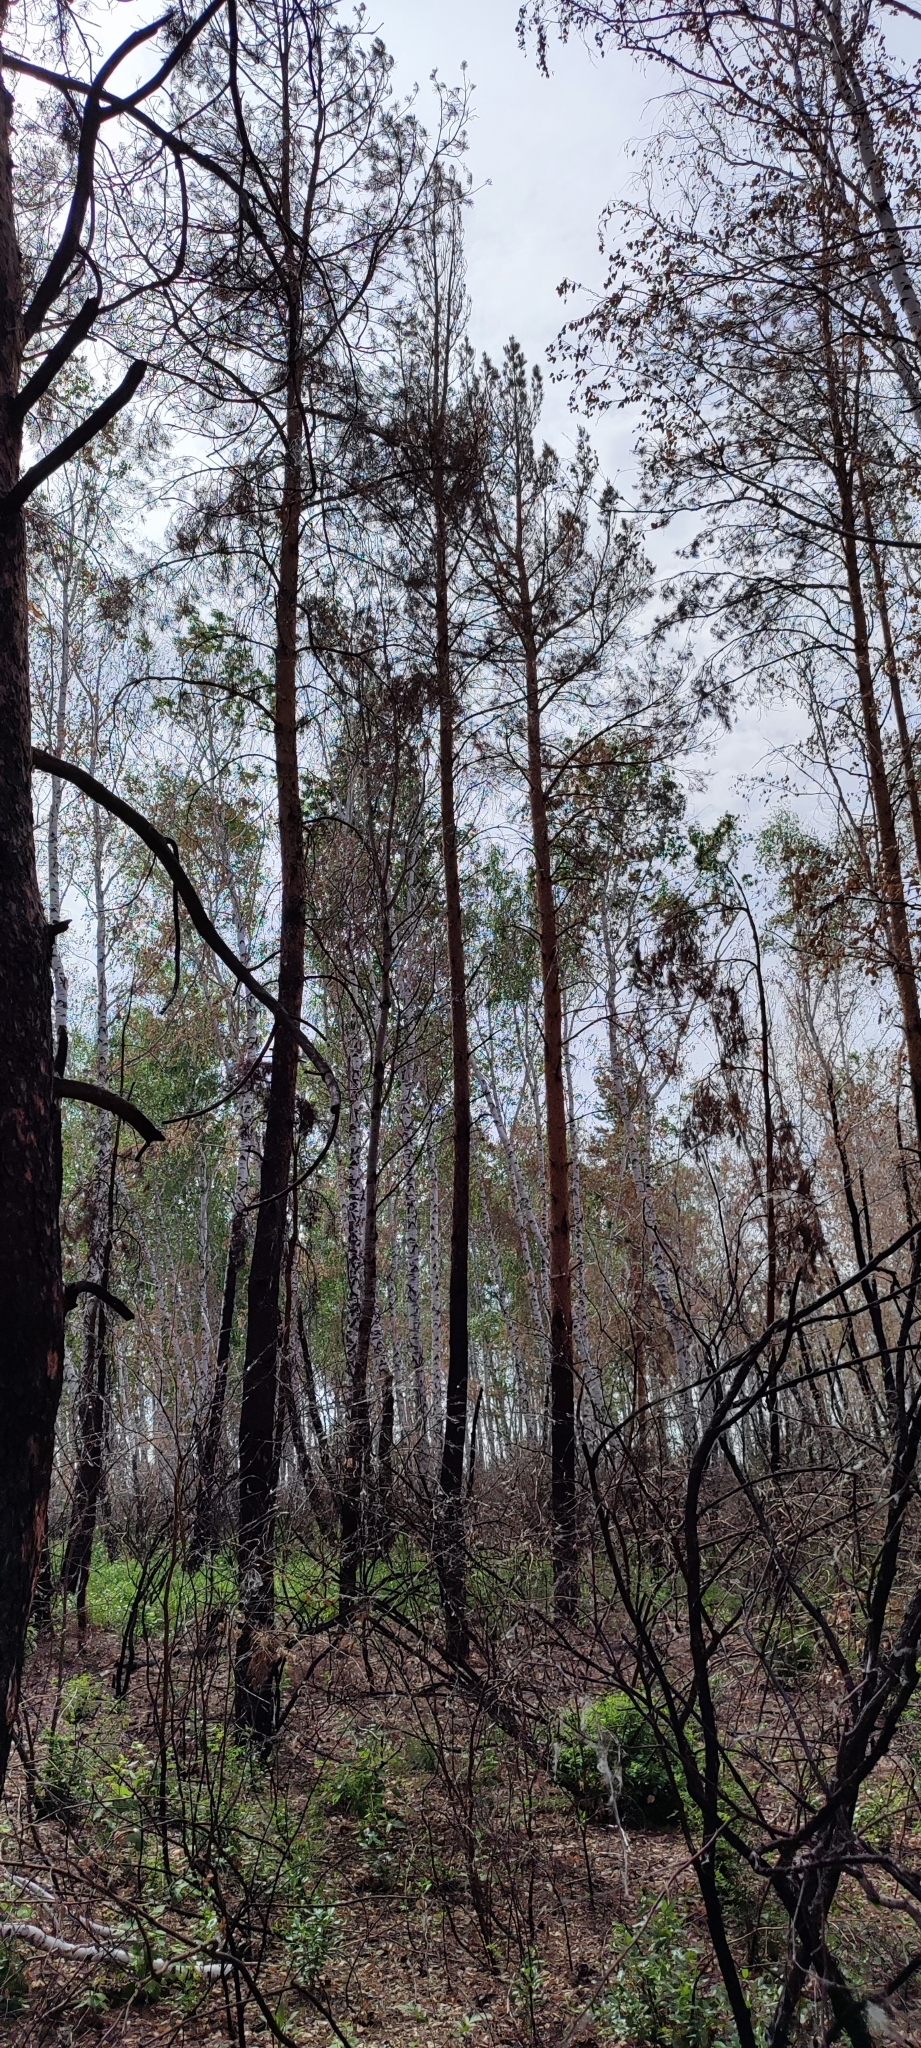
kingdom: Plantae
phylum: Tracheophyta
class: Pinopsida
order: Pinales
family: Pinaceae
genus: Pinus
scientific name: Pinus sylvestris
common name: Scots pine
